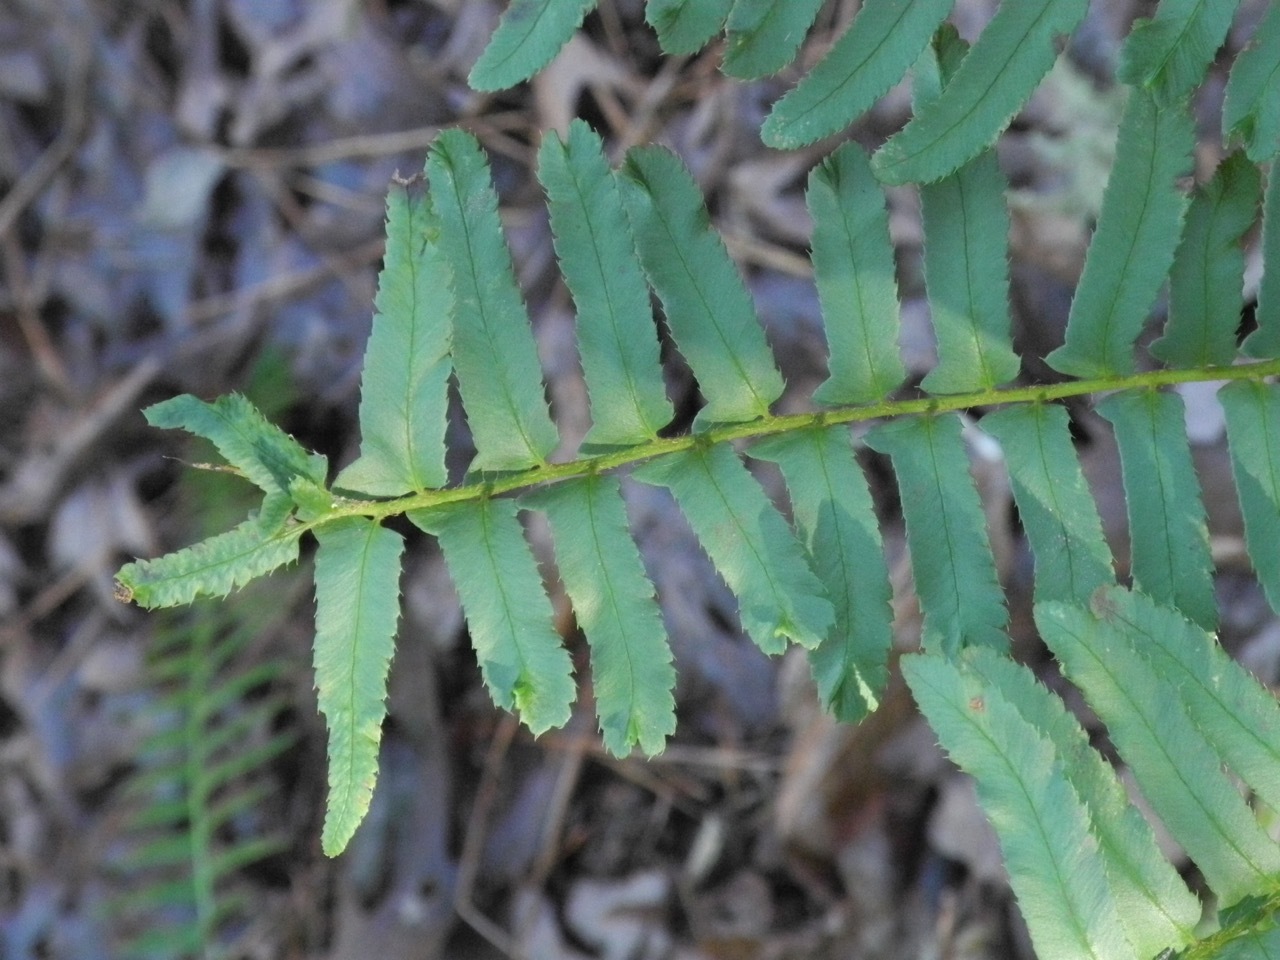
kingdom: Plantae
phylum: Tracheophyta
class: Polypodiopsida
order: Polypodiales
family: Dryopteridaceae
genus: Polystichum
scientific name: Polystichum acrostichoides
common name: Christmas fern
